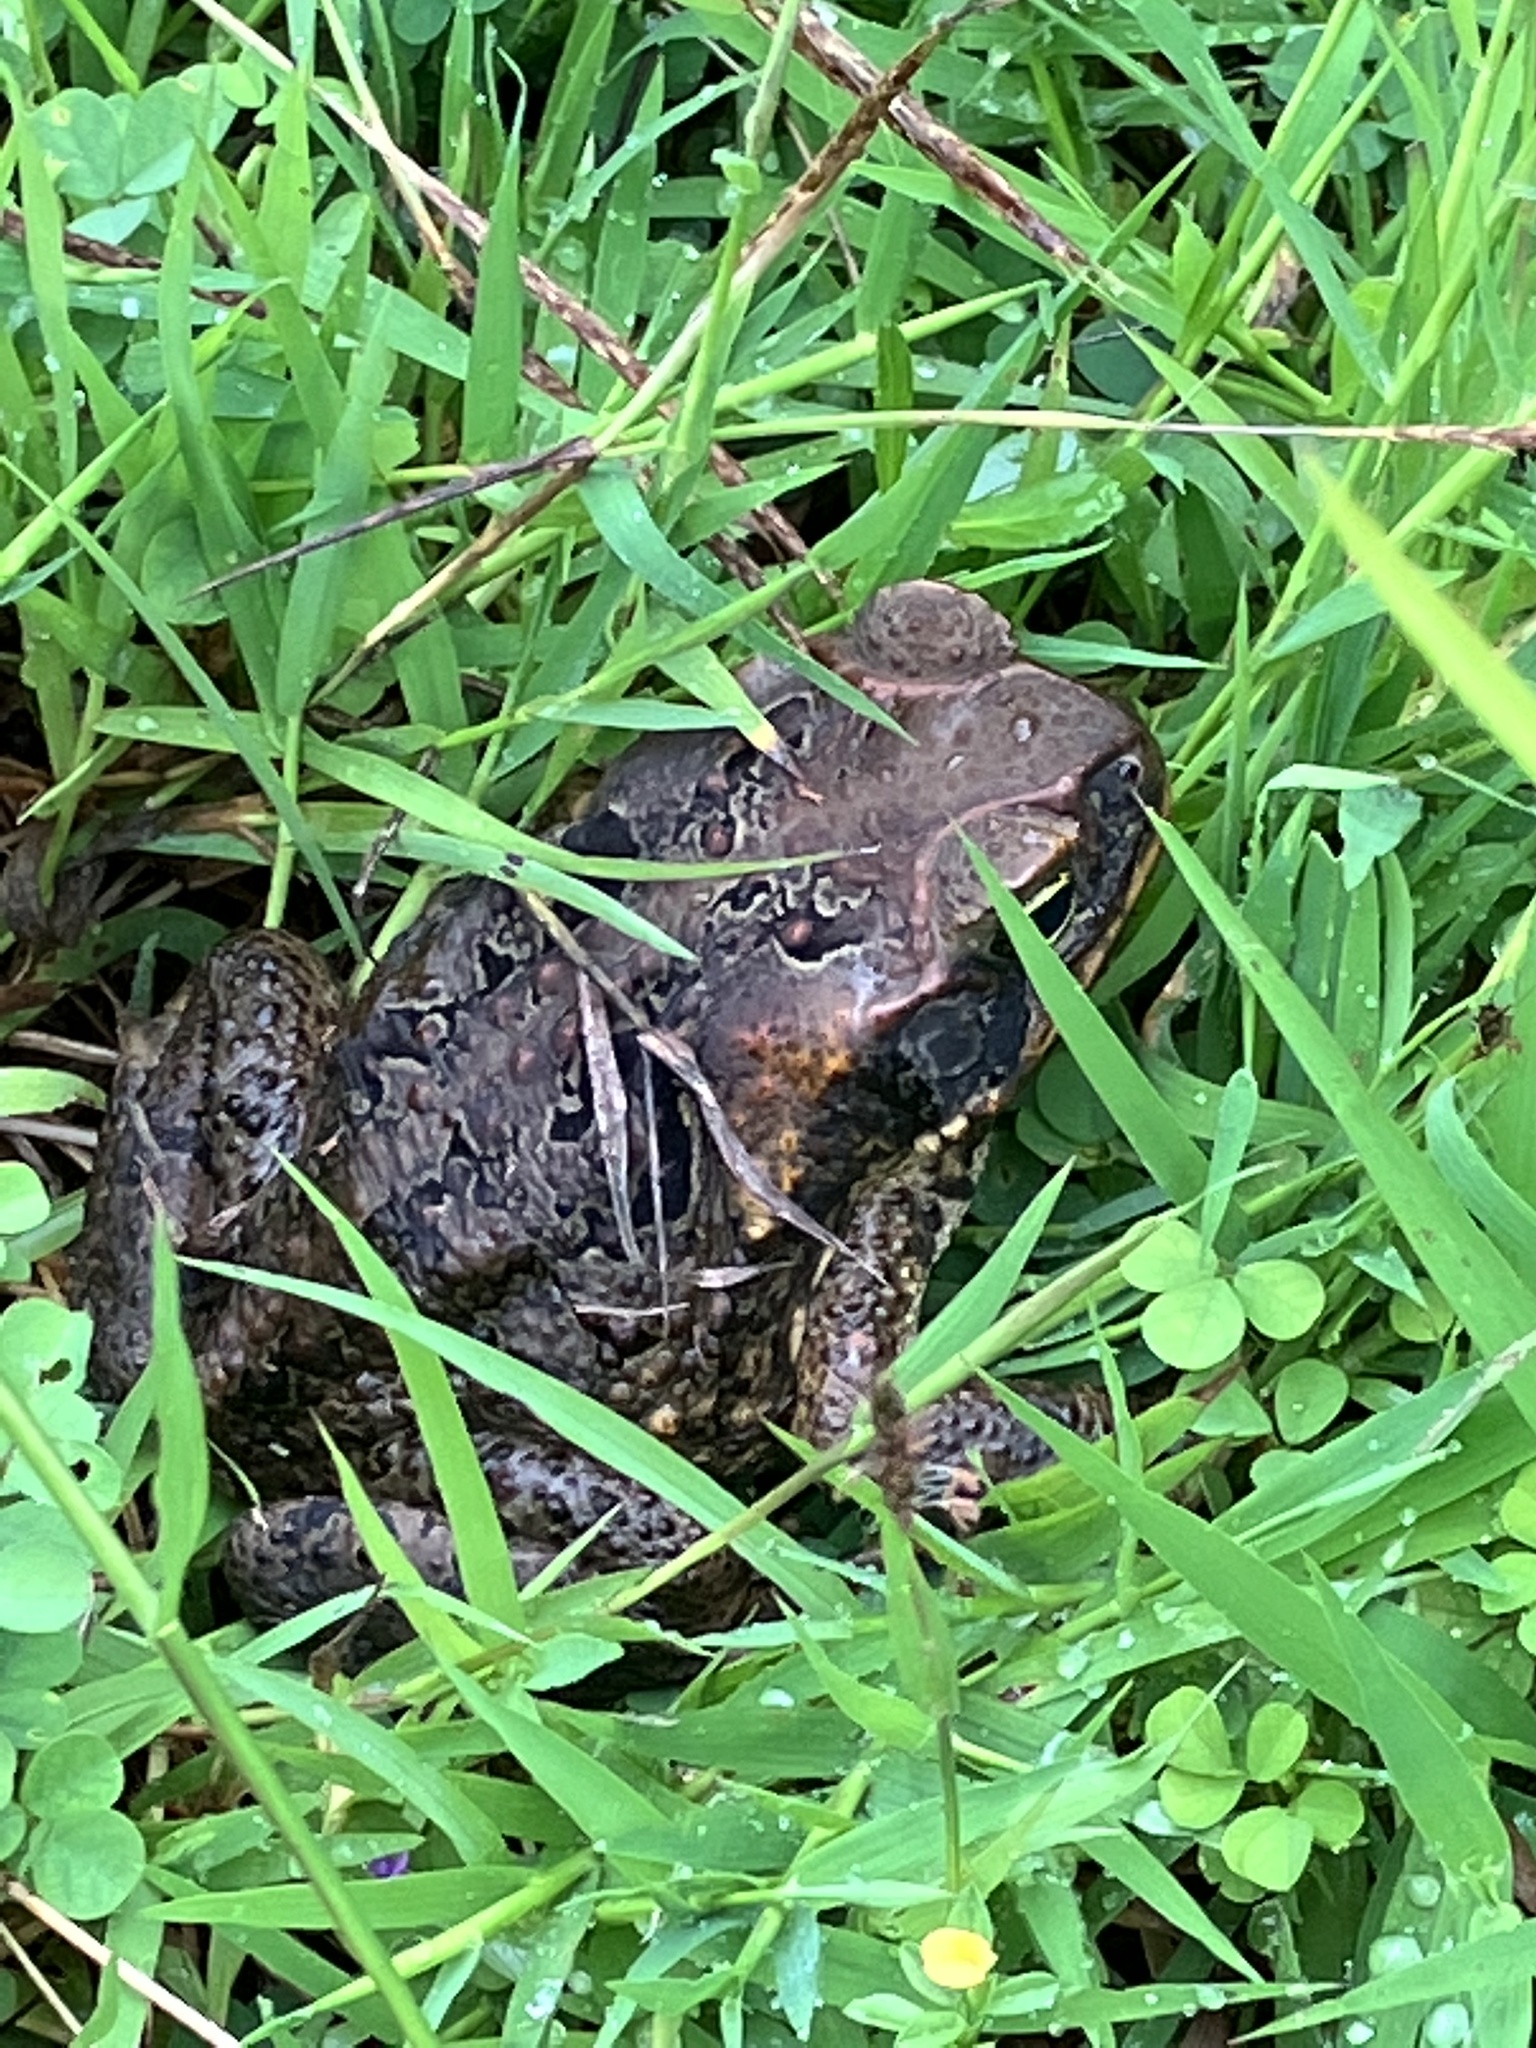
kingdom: Animalia
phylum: Chordata
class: Amphibia
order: Anura
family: Bufonidae
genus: Rhinella
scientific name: Rhinella marina
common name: Cane toad
